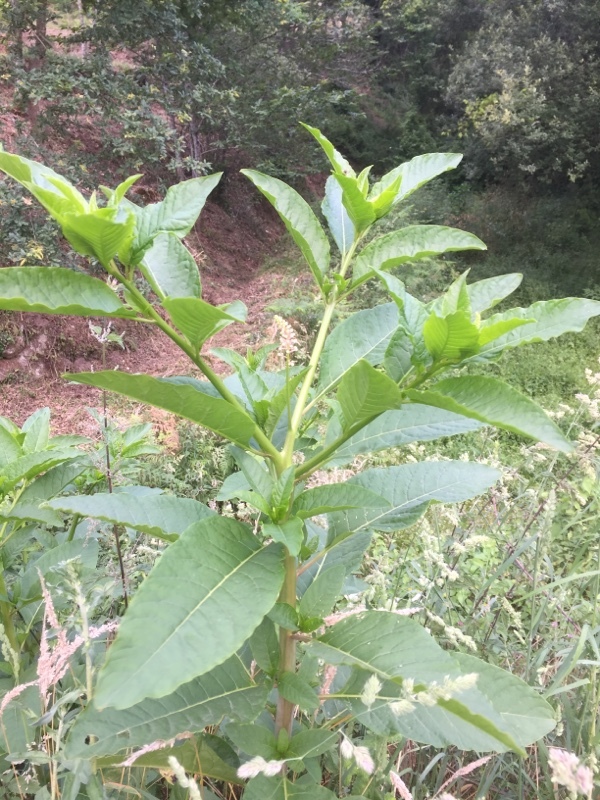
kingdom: Plantae
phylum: Tracheophyta
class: Magnoliopsida
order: Caryophyllales
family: Phytolaccaceae
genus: Phytolacca
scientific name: Phytolacca americana
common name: American pokeweed
